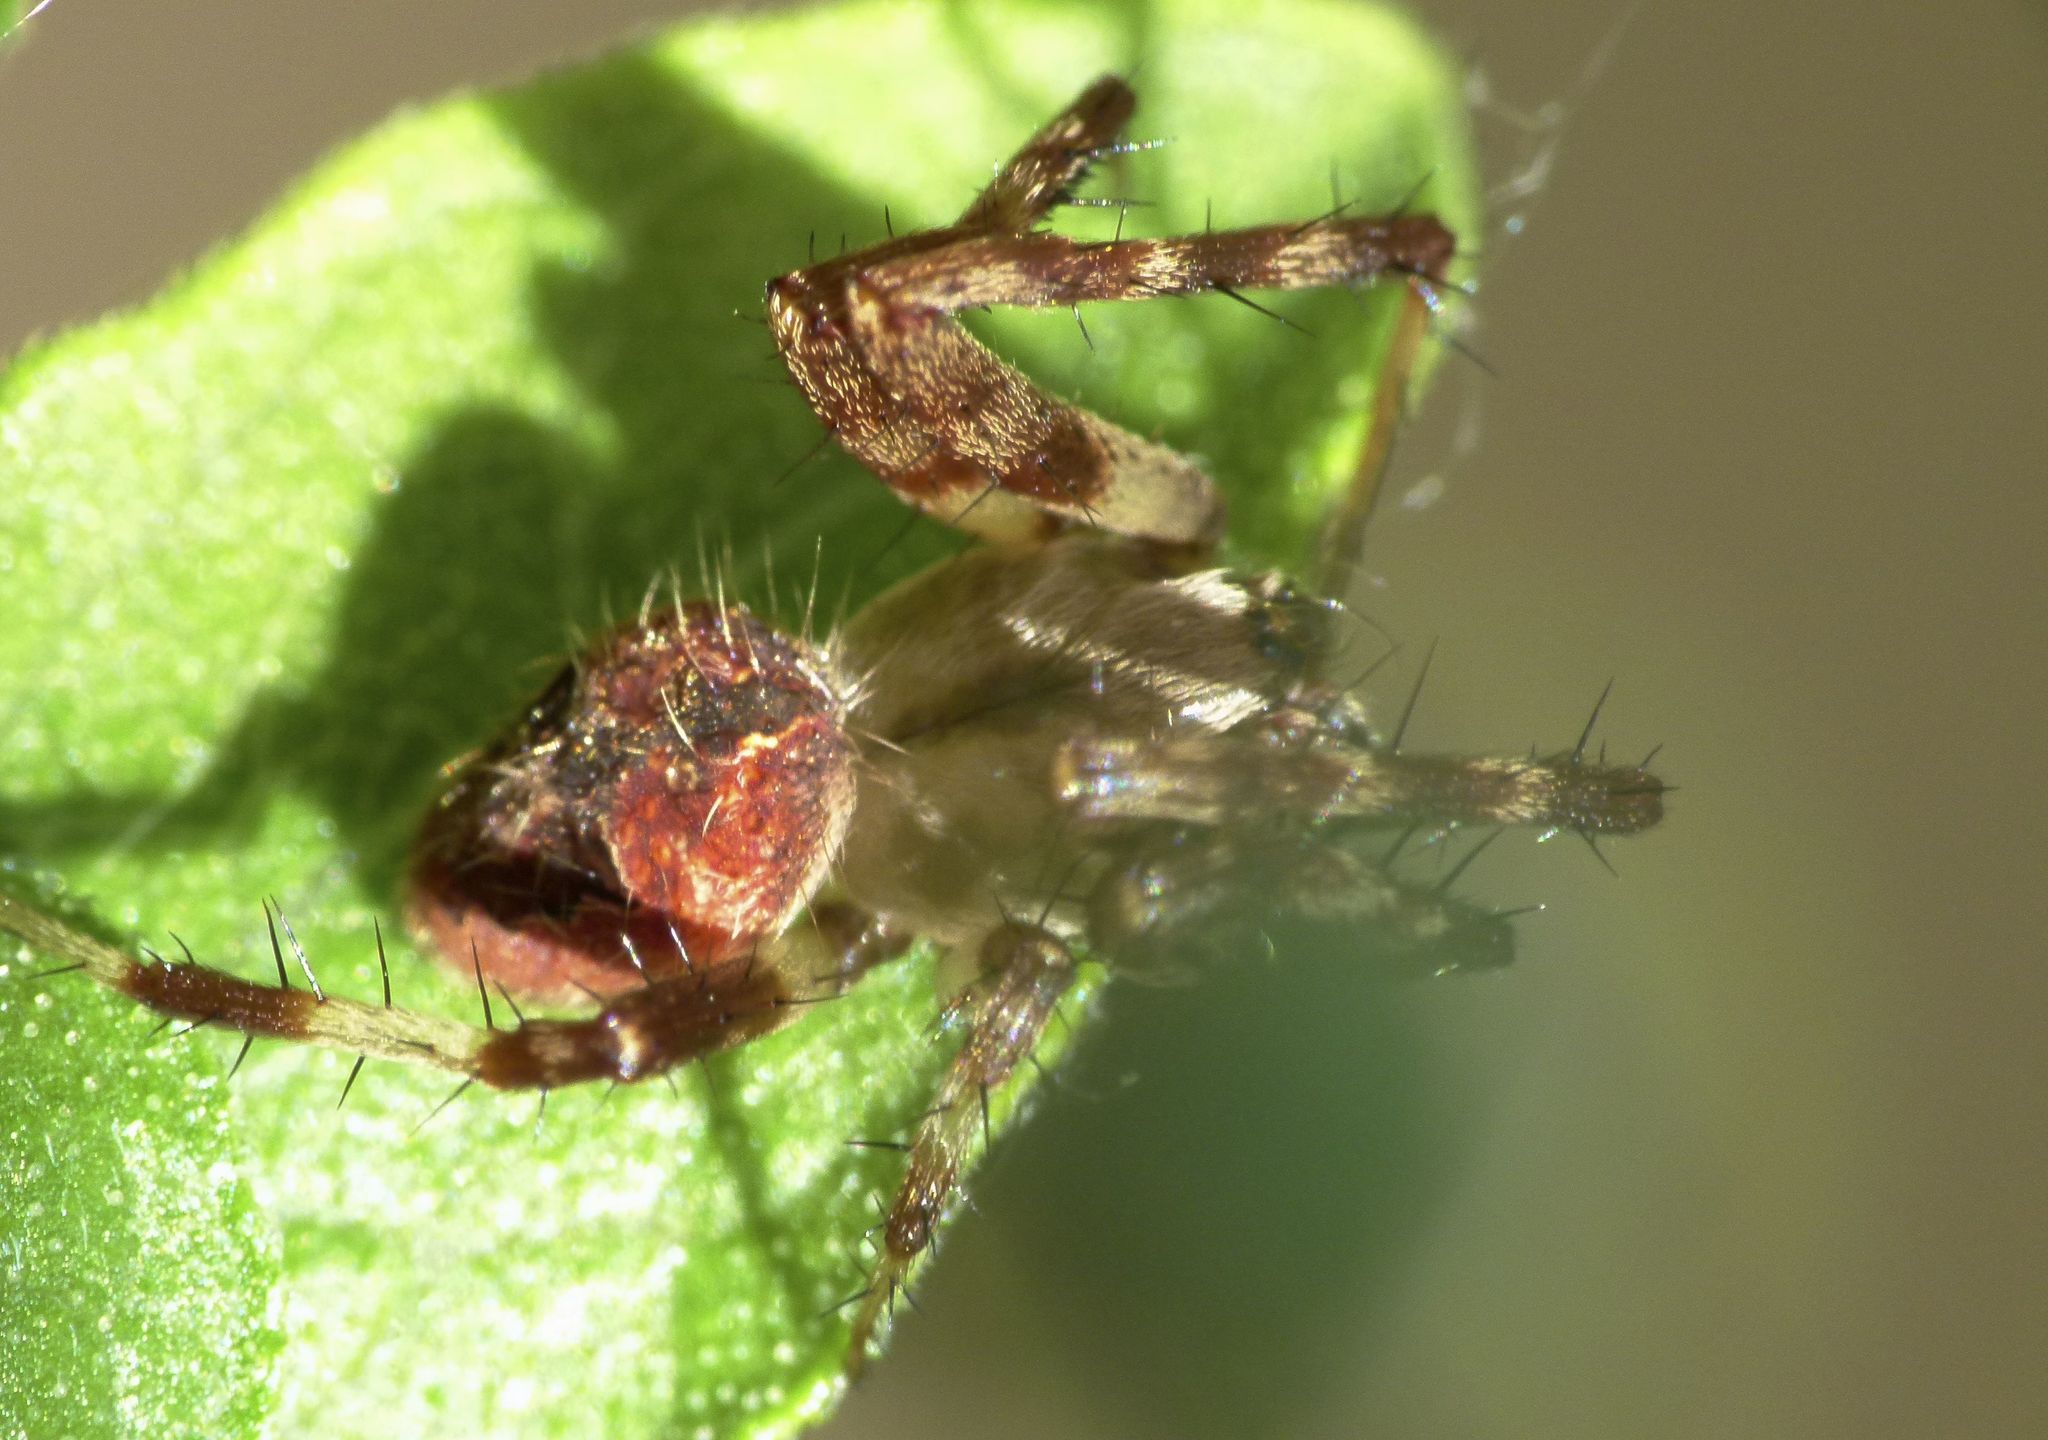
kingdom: Animalia
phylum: Arthropoda
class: Arachnida
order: Araneae
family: Araneidae
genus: Neoscona
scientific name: Neoscona arabesca
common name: Orb weavers
